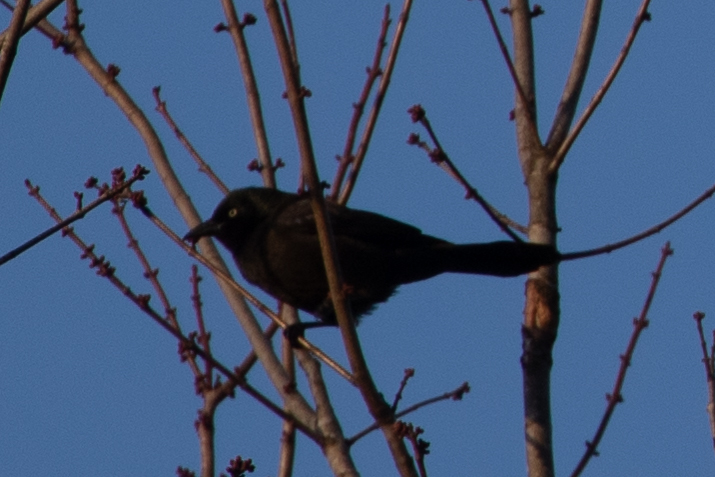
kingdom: Animalia
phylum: Chordata
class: Aves
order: Passeriformes
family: Icteridae
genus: Quiscalus
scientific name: Quiscalus quiscula
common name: Common grackle
